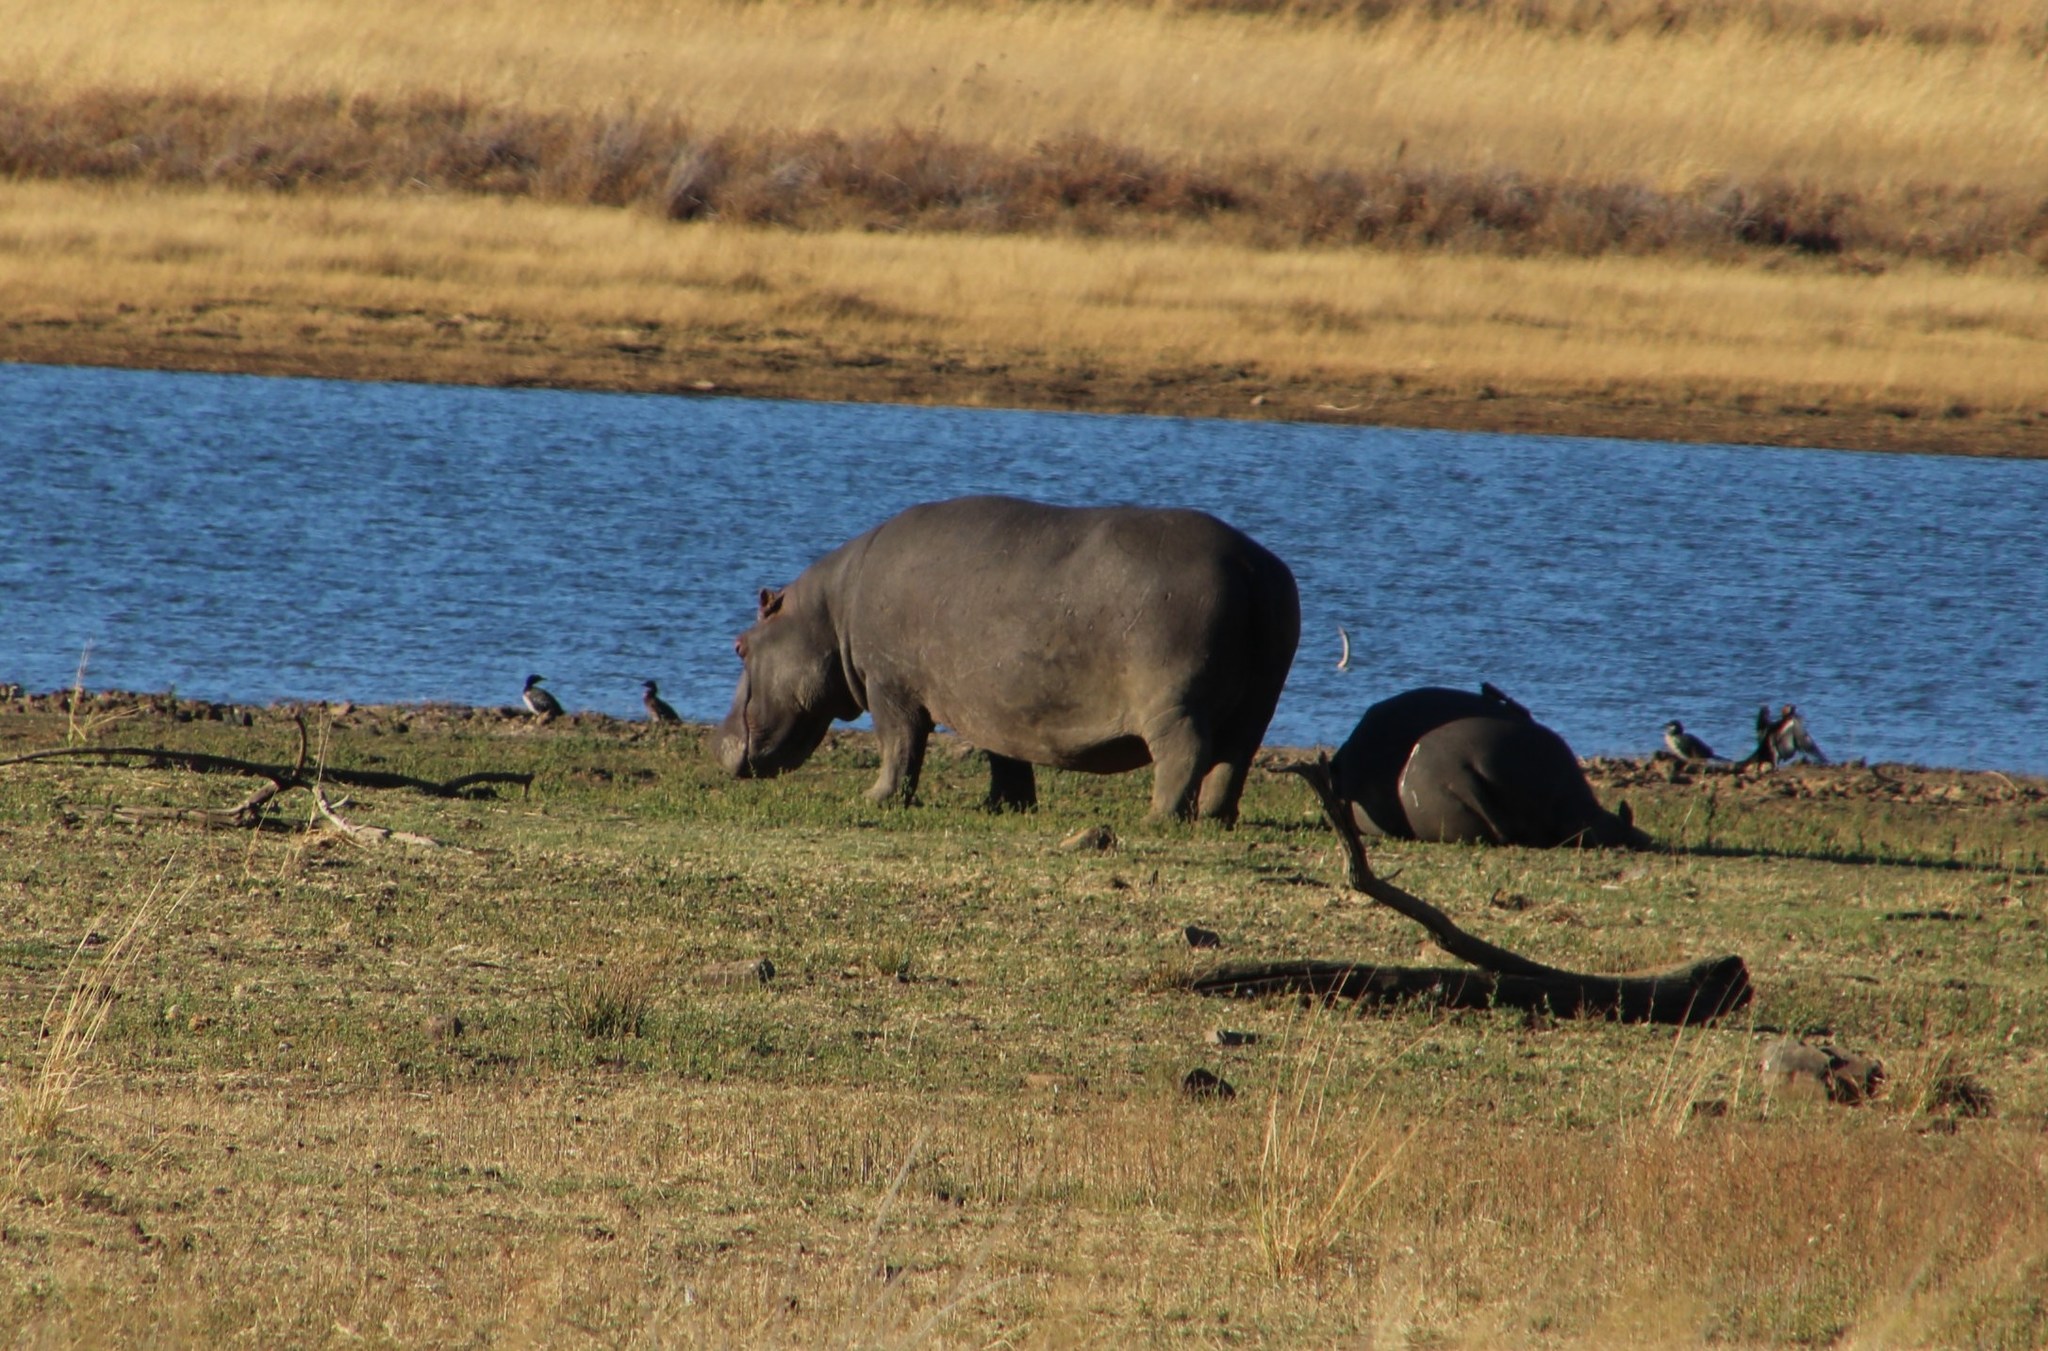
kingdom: Animalia
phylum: Chordata
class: Mammalia
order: Artiodactyla
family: Hippopotamidae
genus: Hippopotamus
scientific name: Hippopotamus amphibius
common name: Common hippopotamus
